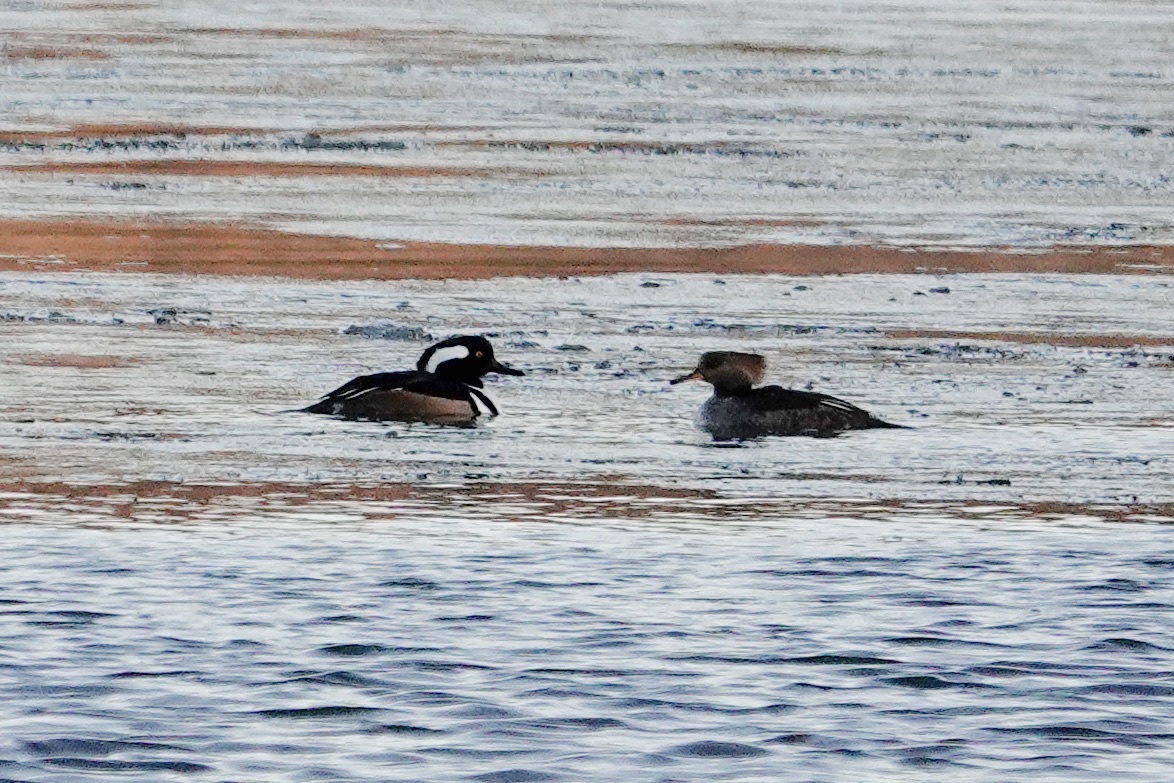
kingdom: Animalia
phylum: Chordata
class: Aves
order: Anseriformes
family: Anatidae
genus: Lophodytes
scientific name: Lophodytes cucullatus
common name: Hooded merganser
